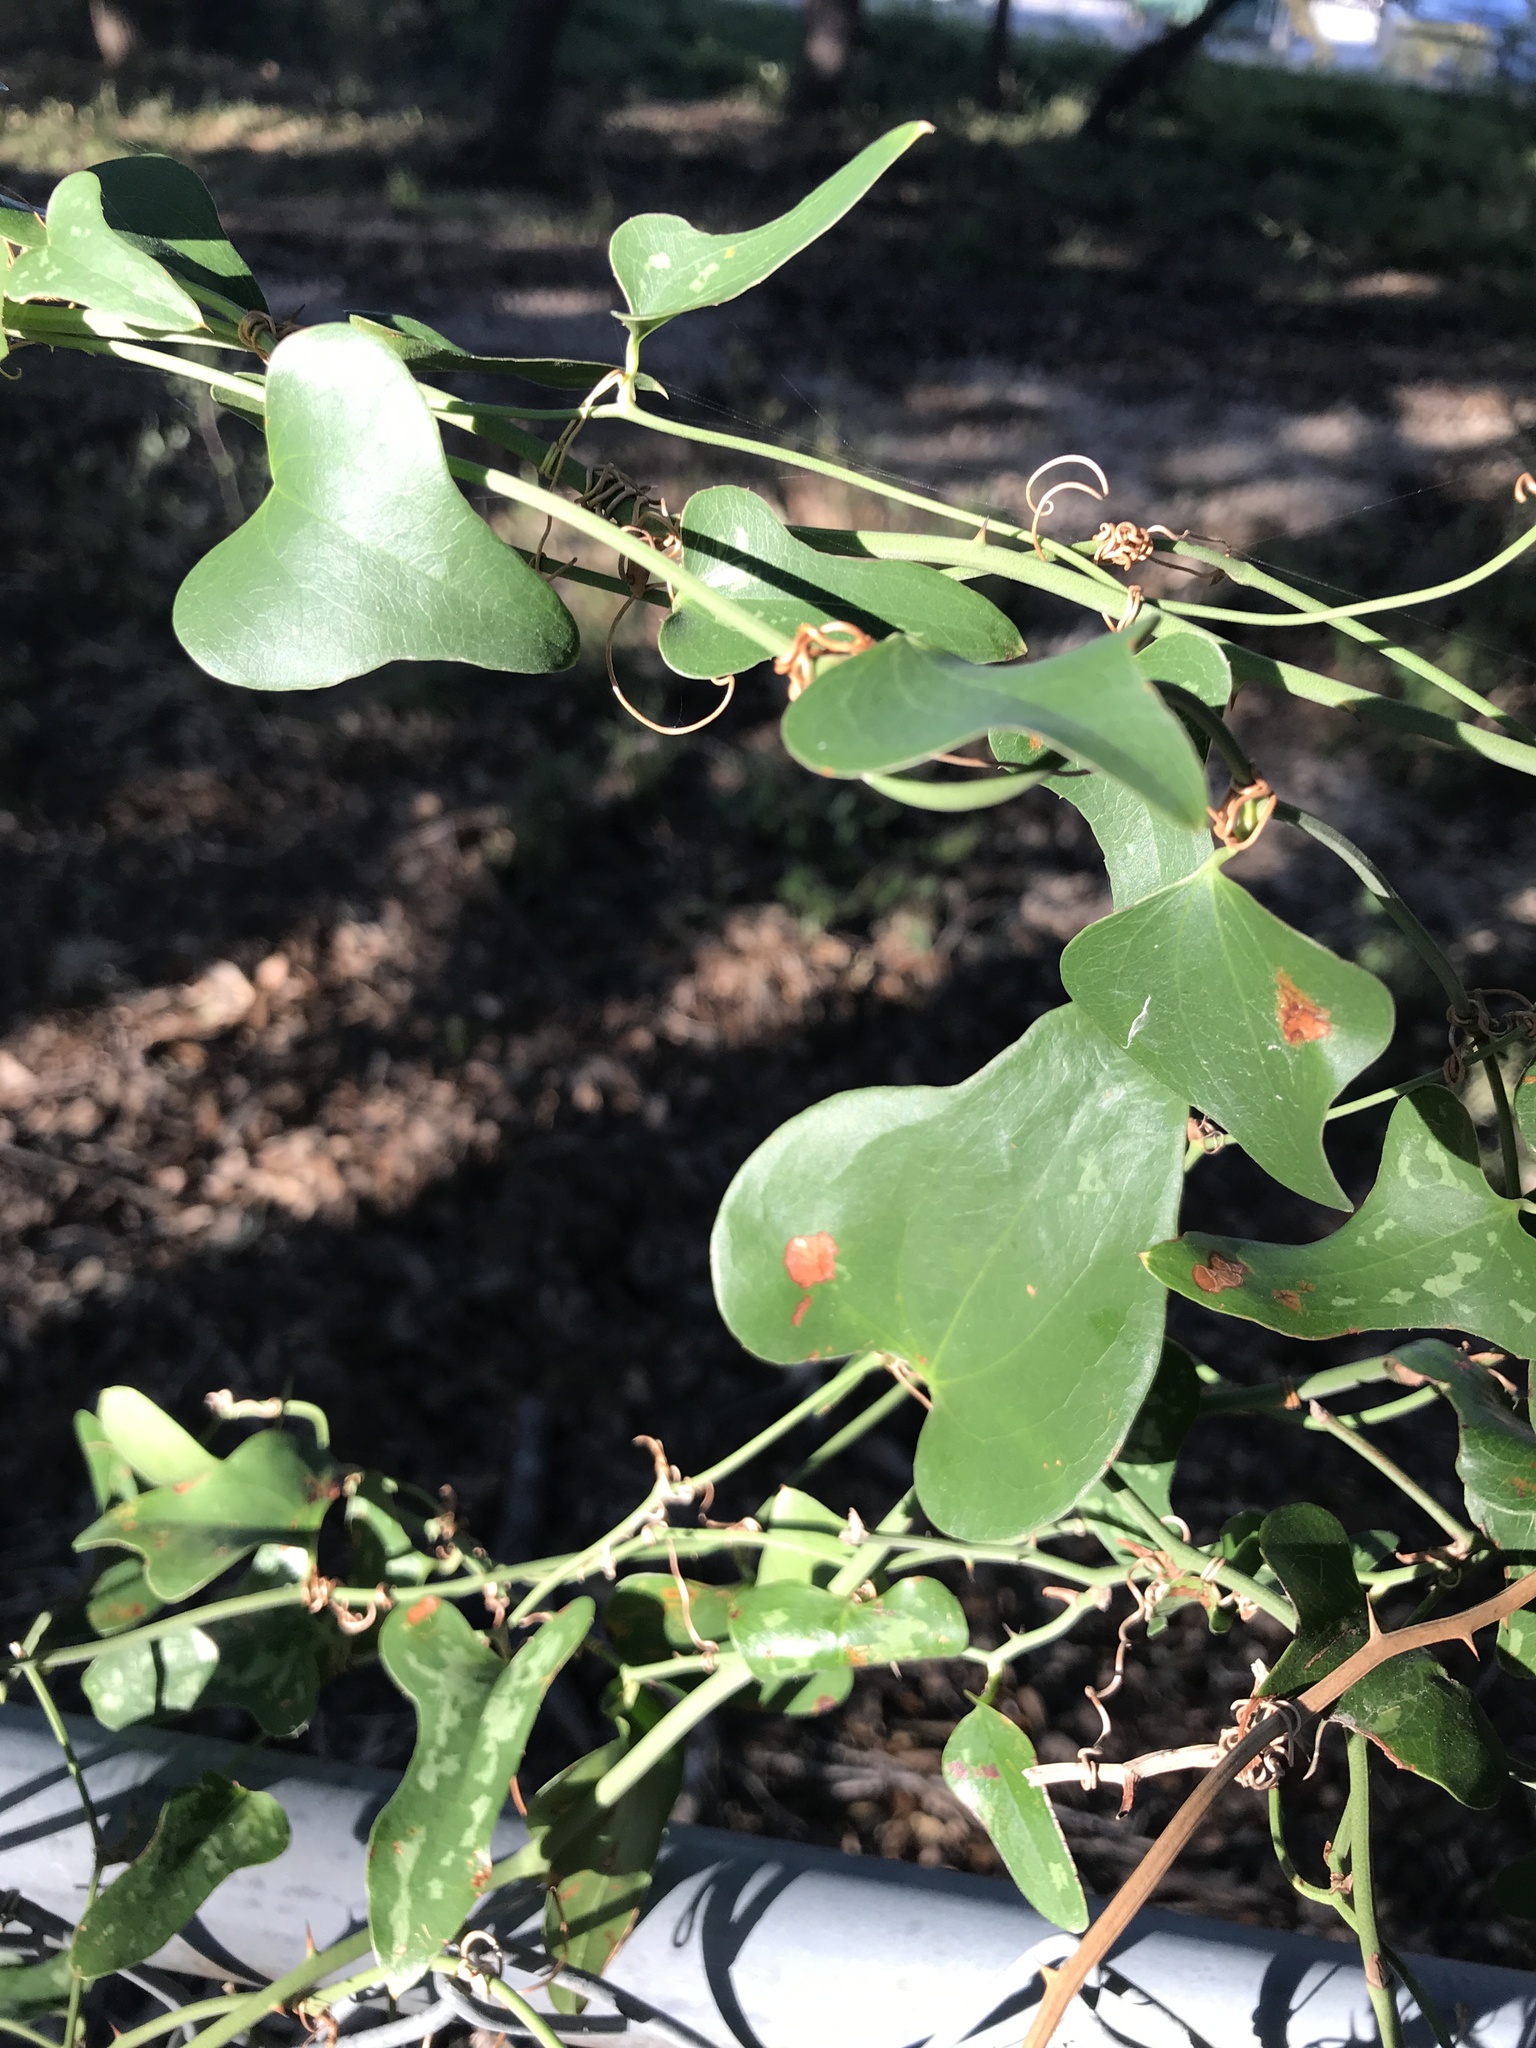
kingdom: Plantae
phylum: Tracheophyta
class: Liliopsida
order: Liliales
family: Smilacaceae
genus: Smilax
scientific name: Smilax bona-nox
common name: Catbrier
